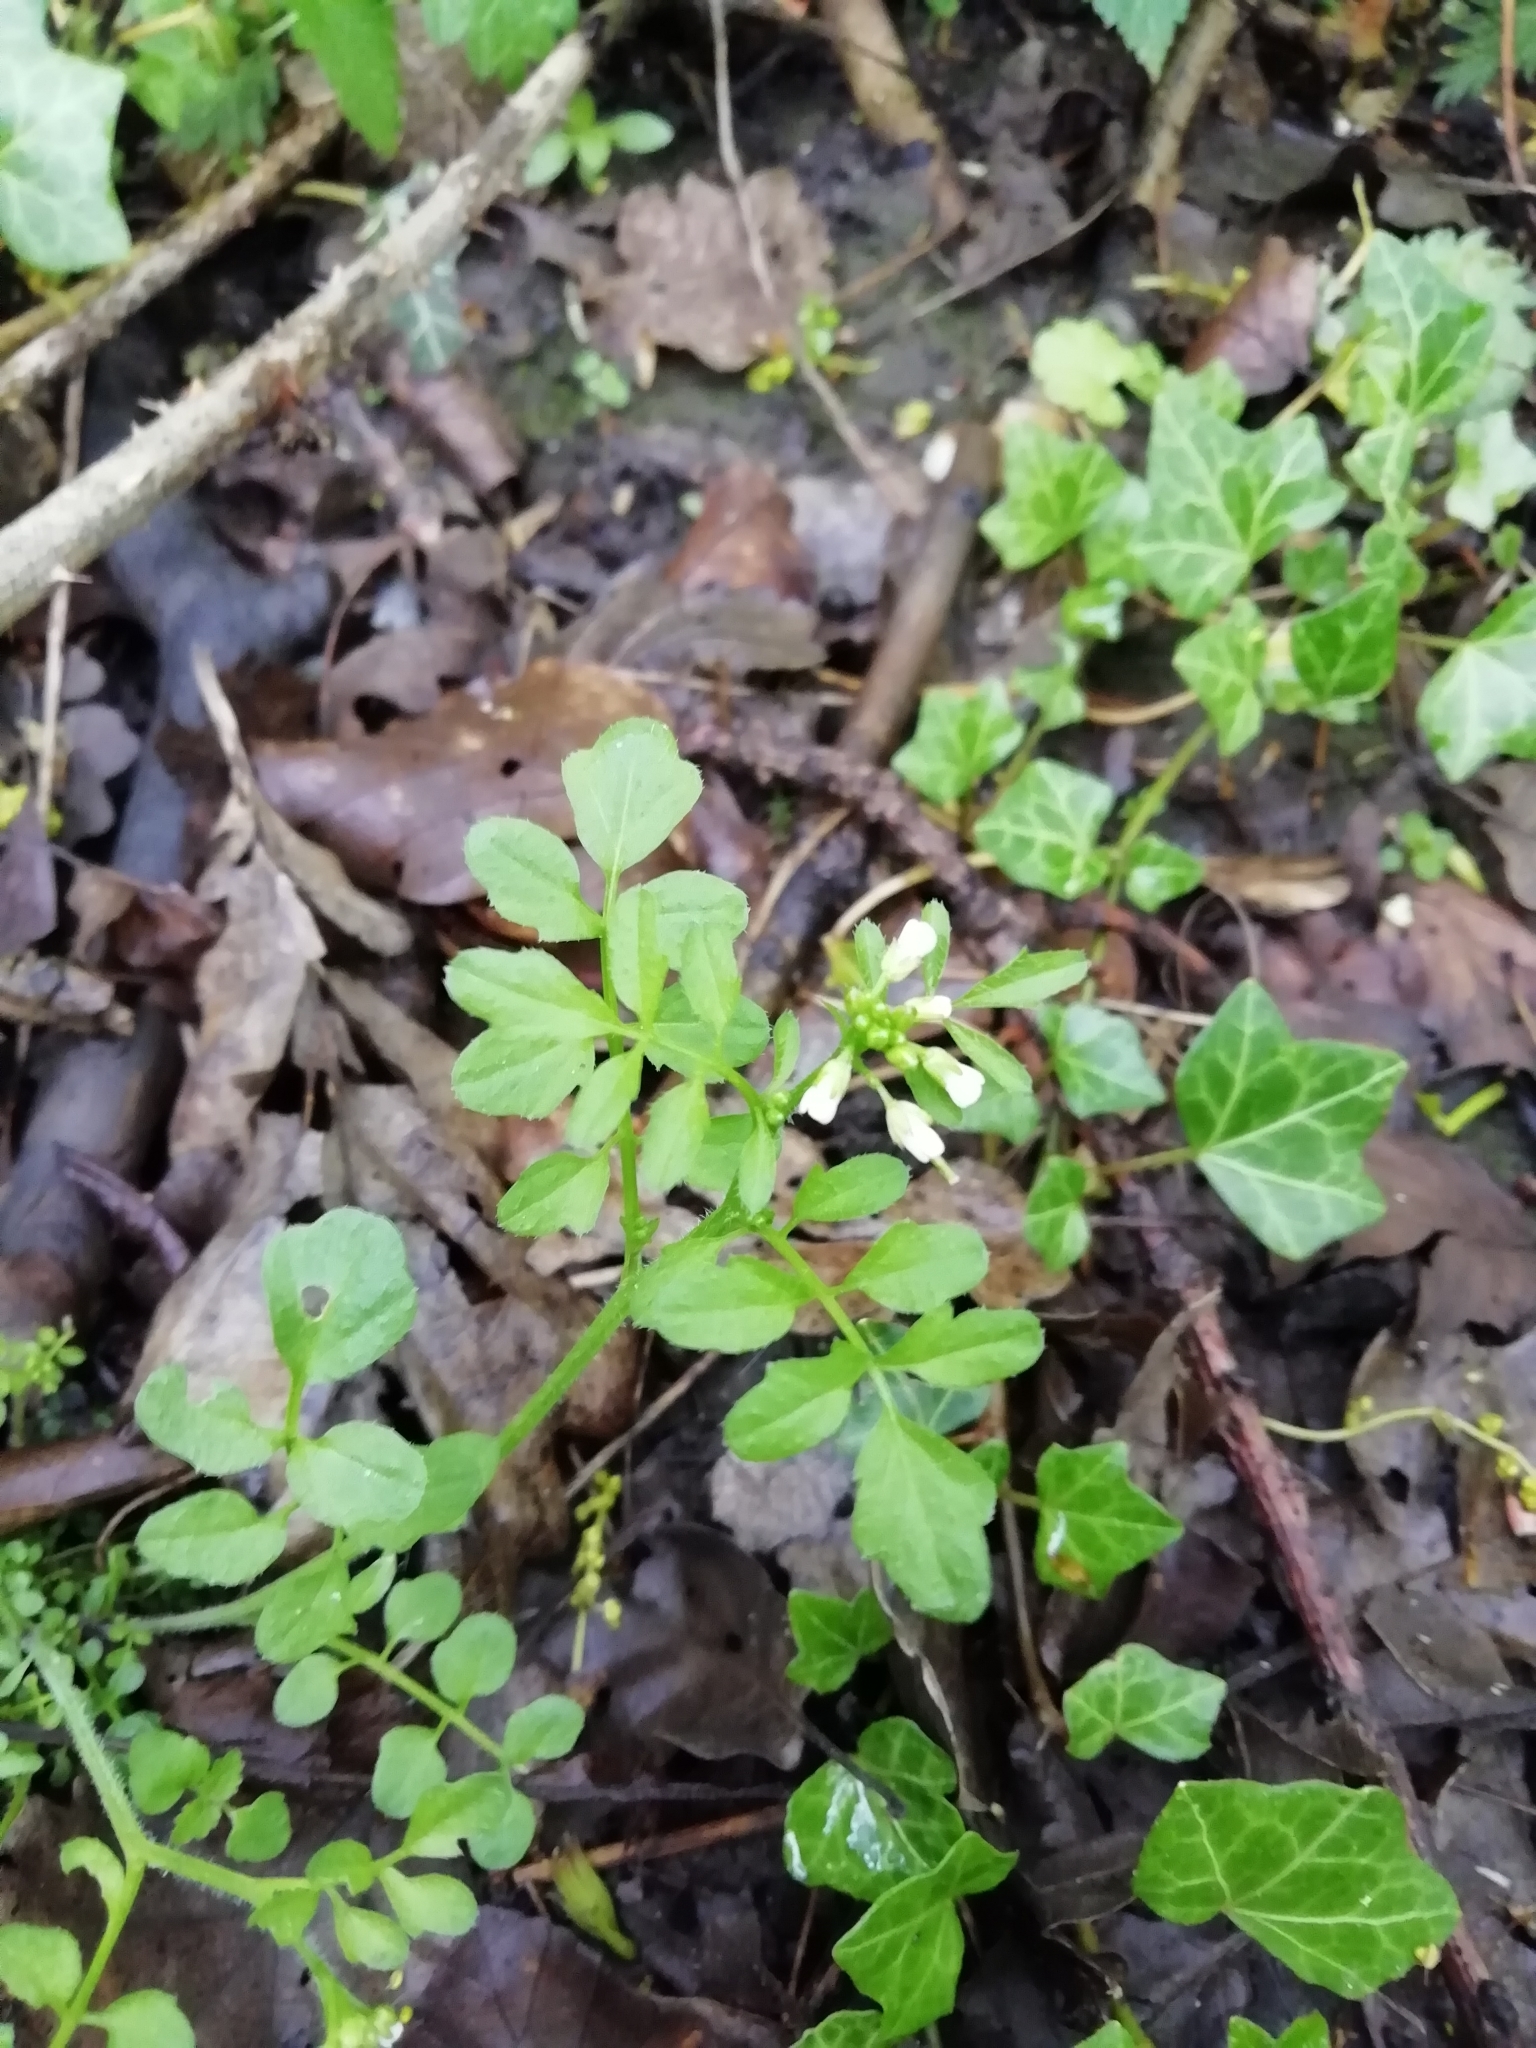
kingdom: Plantae
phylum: Tracheophyta
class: Magnoliopsida
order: Brassicales
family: Brassicaceae
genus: Cardamine
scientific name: Cardamine flexuosa
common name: Woodland bittercress
